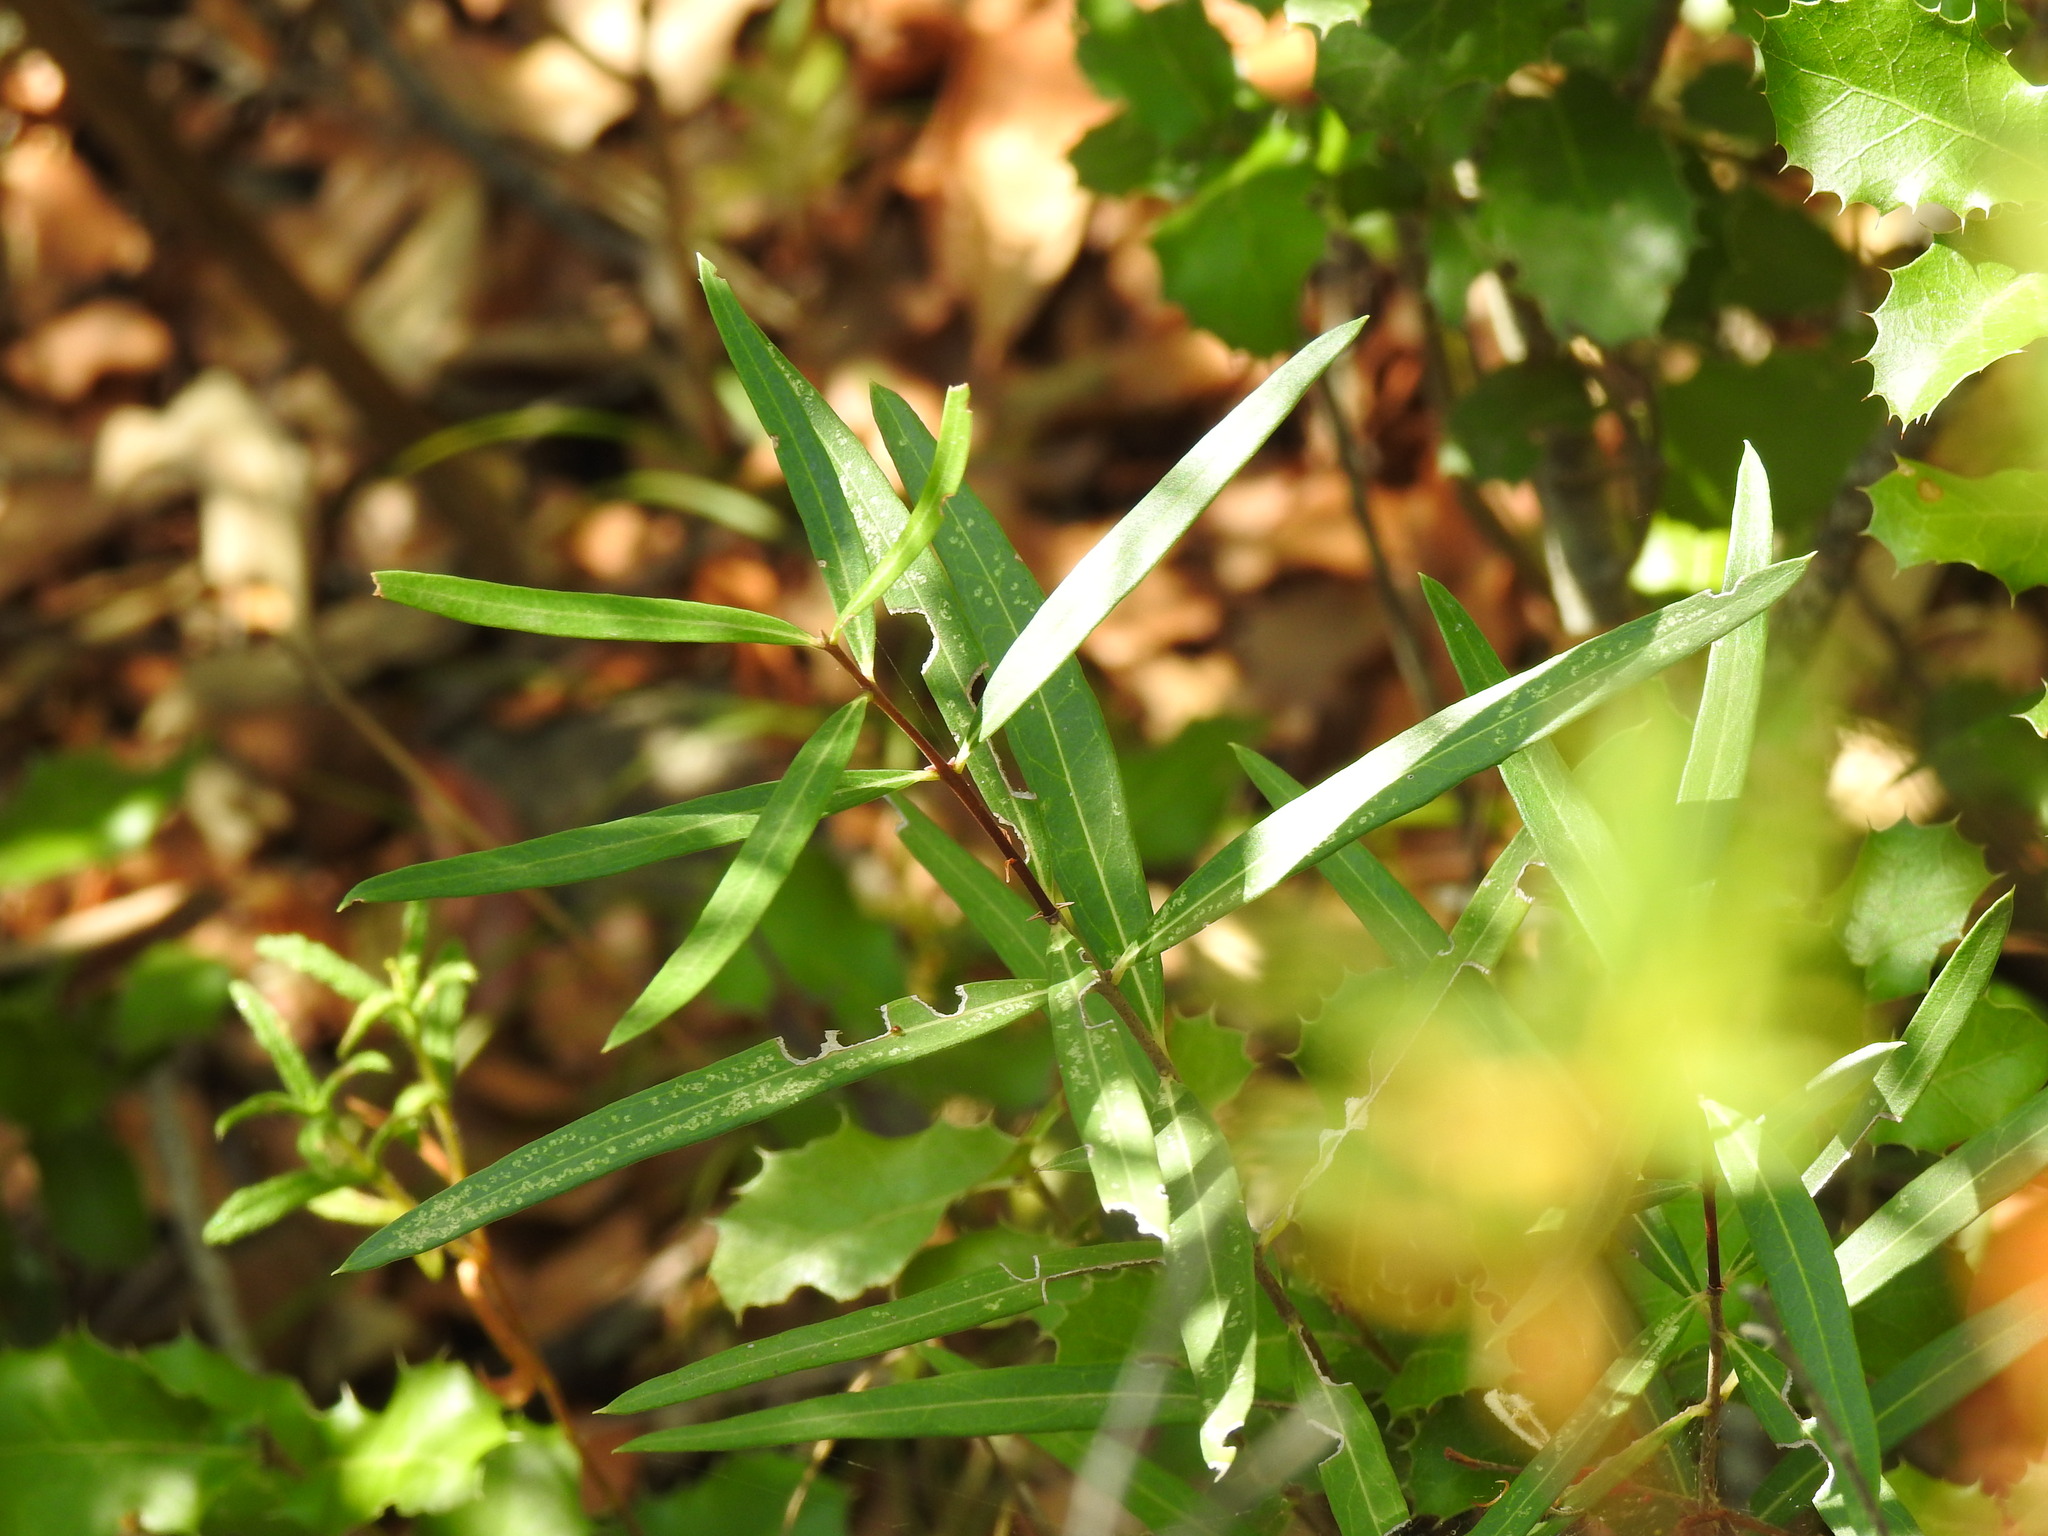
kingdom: Plantae
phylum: Tracheophyta
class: Magnoliopsida
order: Lamiales
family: Oleaceae
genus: Phillyrea
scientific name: Phillyrea angustifolia
